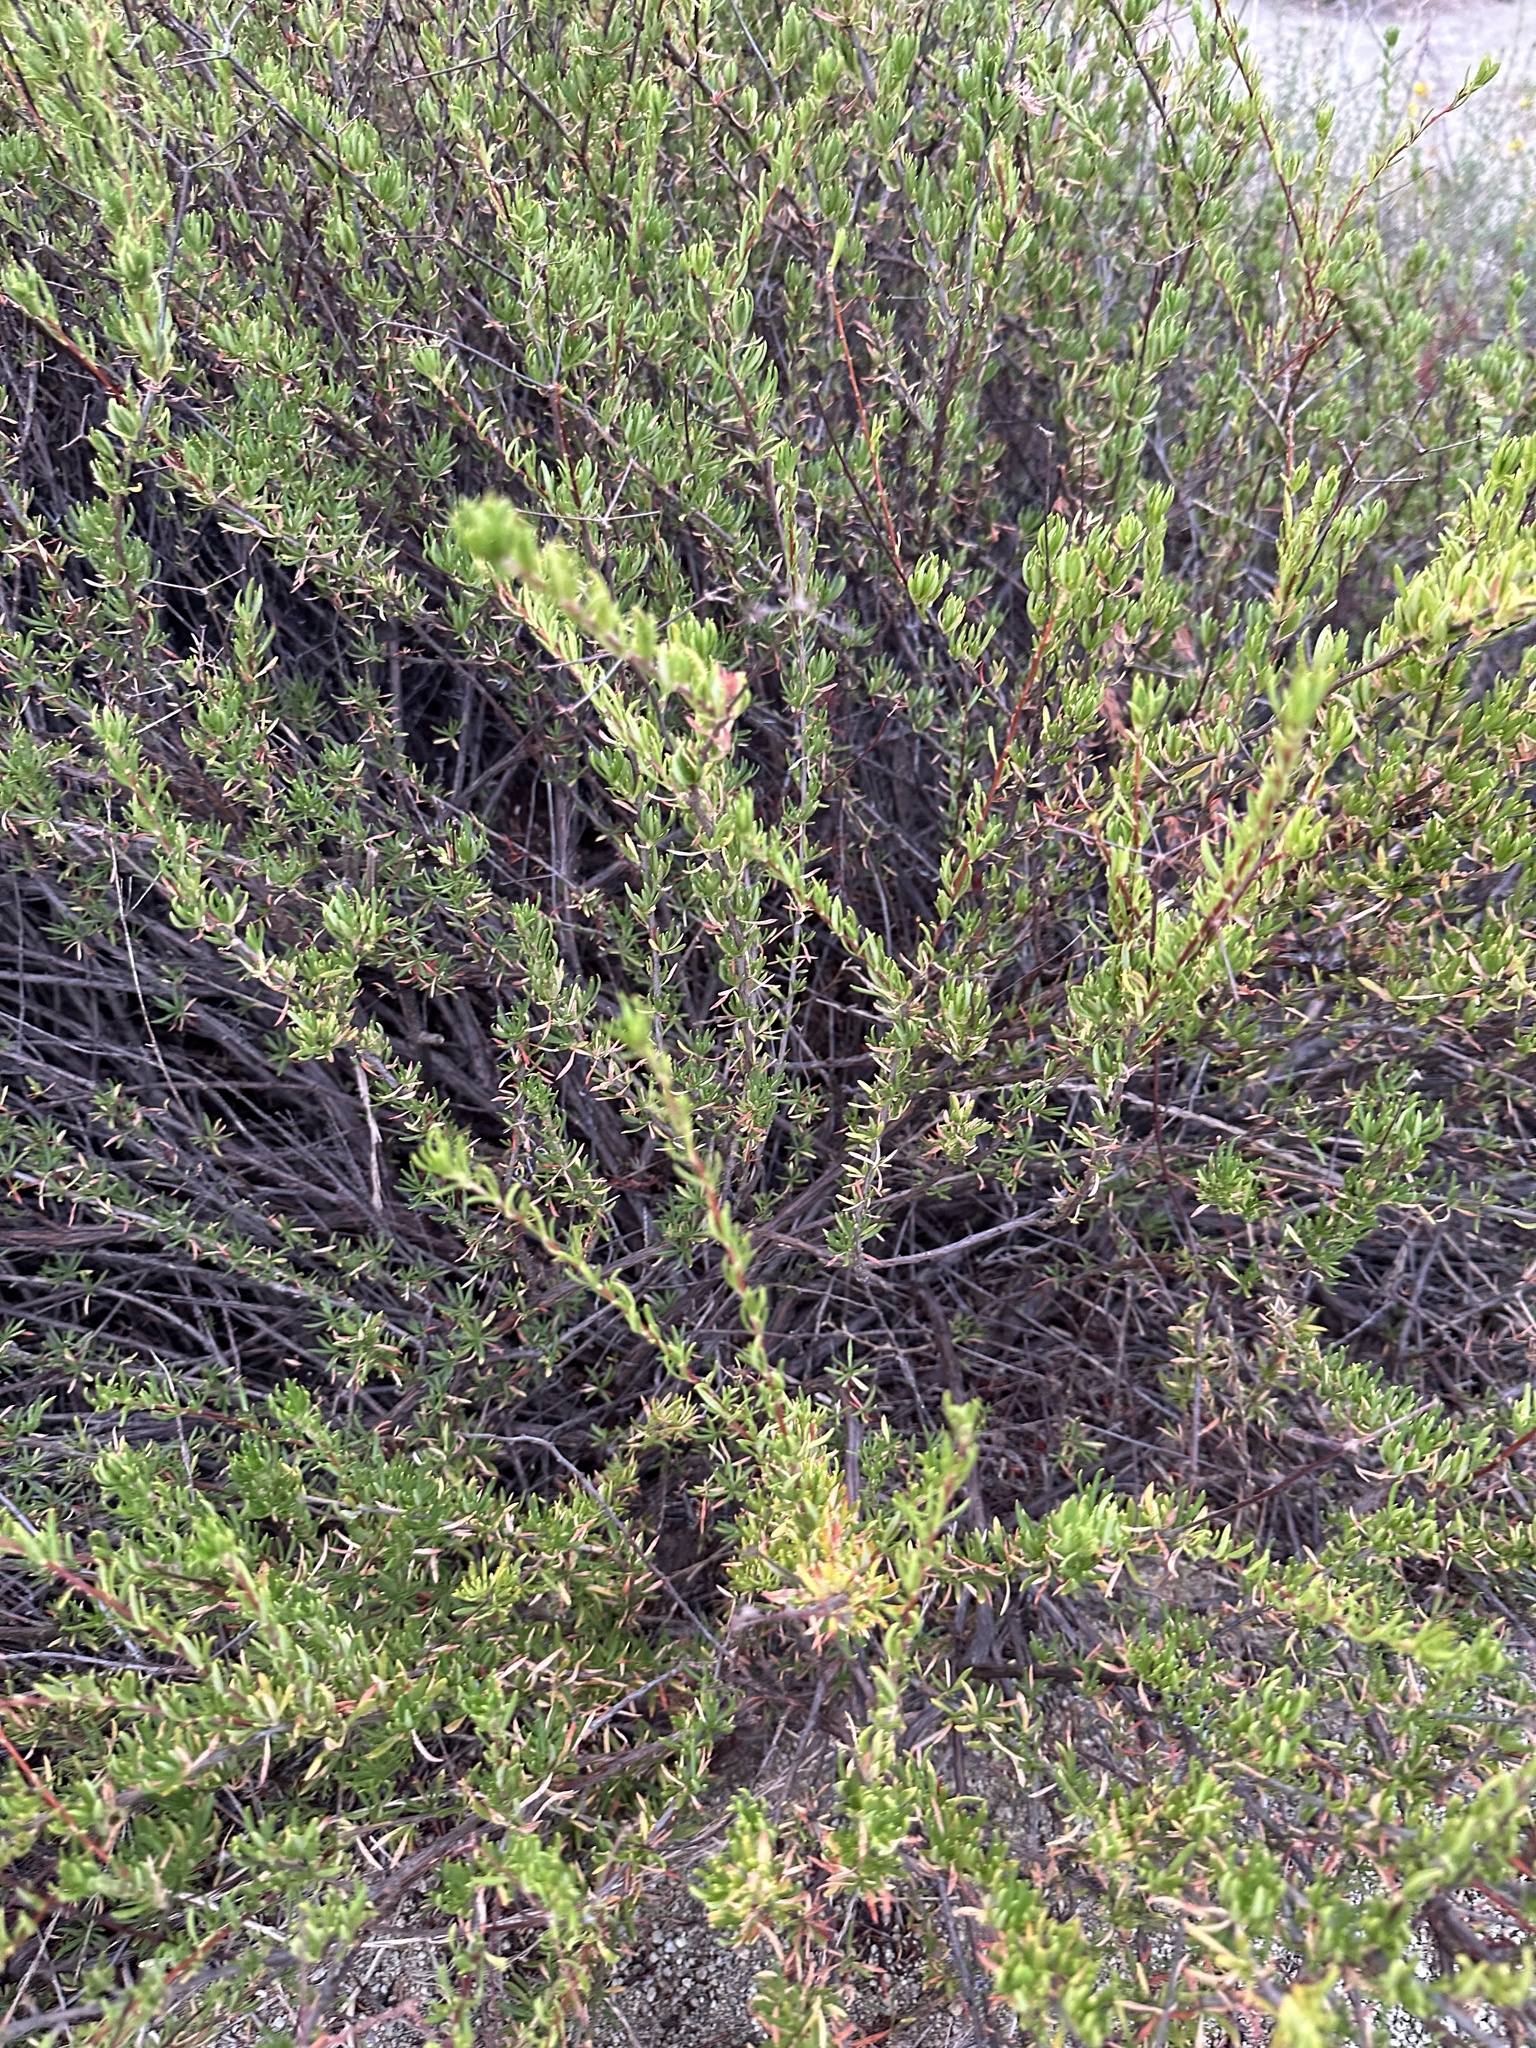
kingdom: Plantae
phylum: Tracheophyta
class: Magnoliopsida
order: Caryophyllales
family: Polygonaceae
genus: Eriogonum
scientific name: Eriogonum fasciculatum
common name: California wild buckwheat
